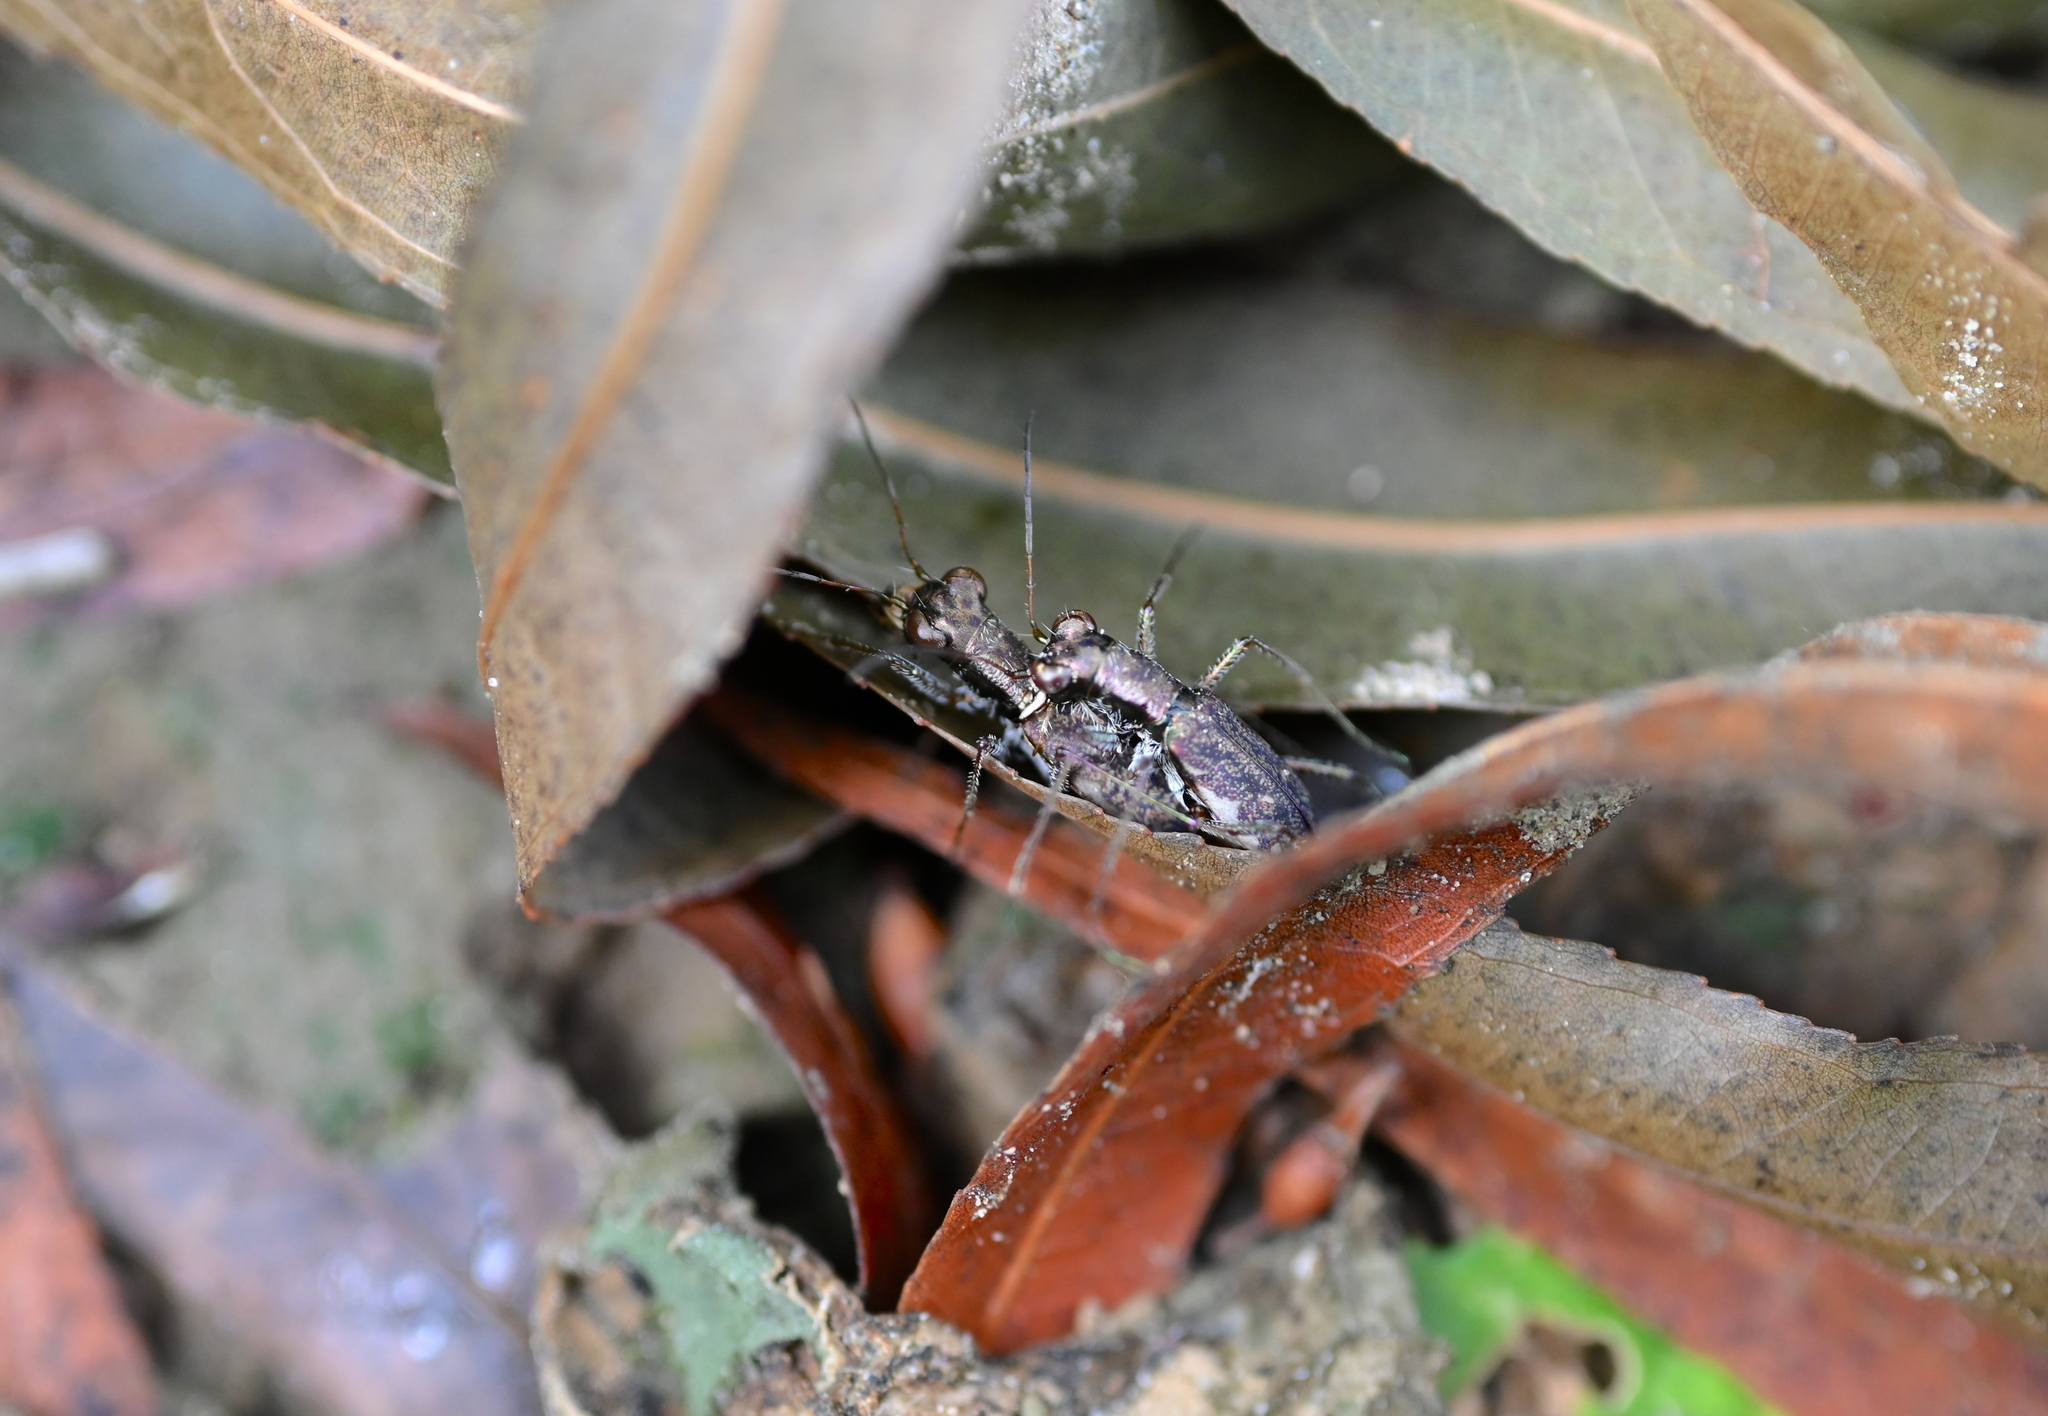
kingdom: Animalia
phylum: Arthropoda
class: Insecta
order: Coleoptera
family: Carabidae
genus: Cylindera
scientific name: Cylindera cursitans
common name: Ant-like tiger beetle
